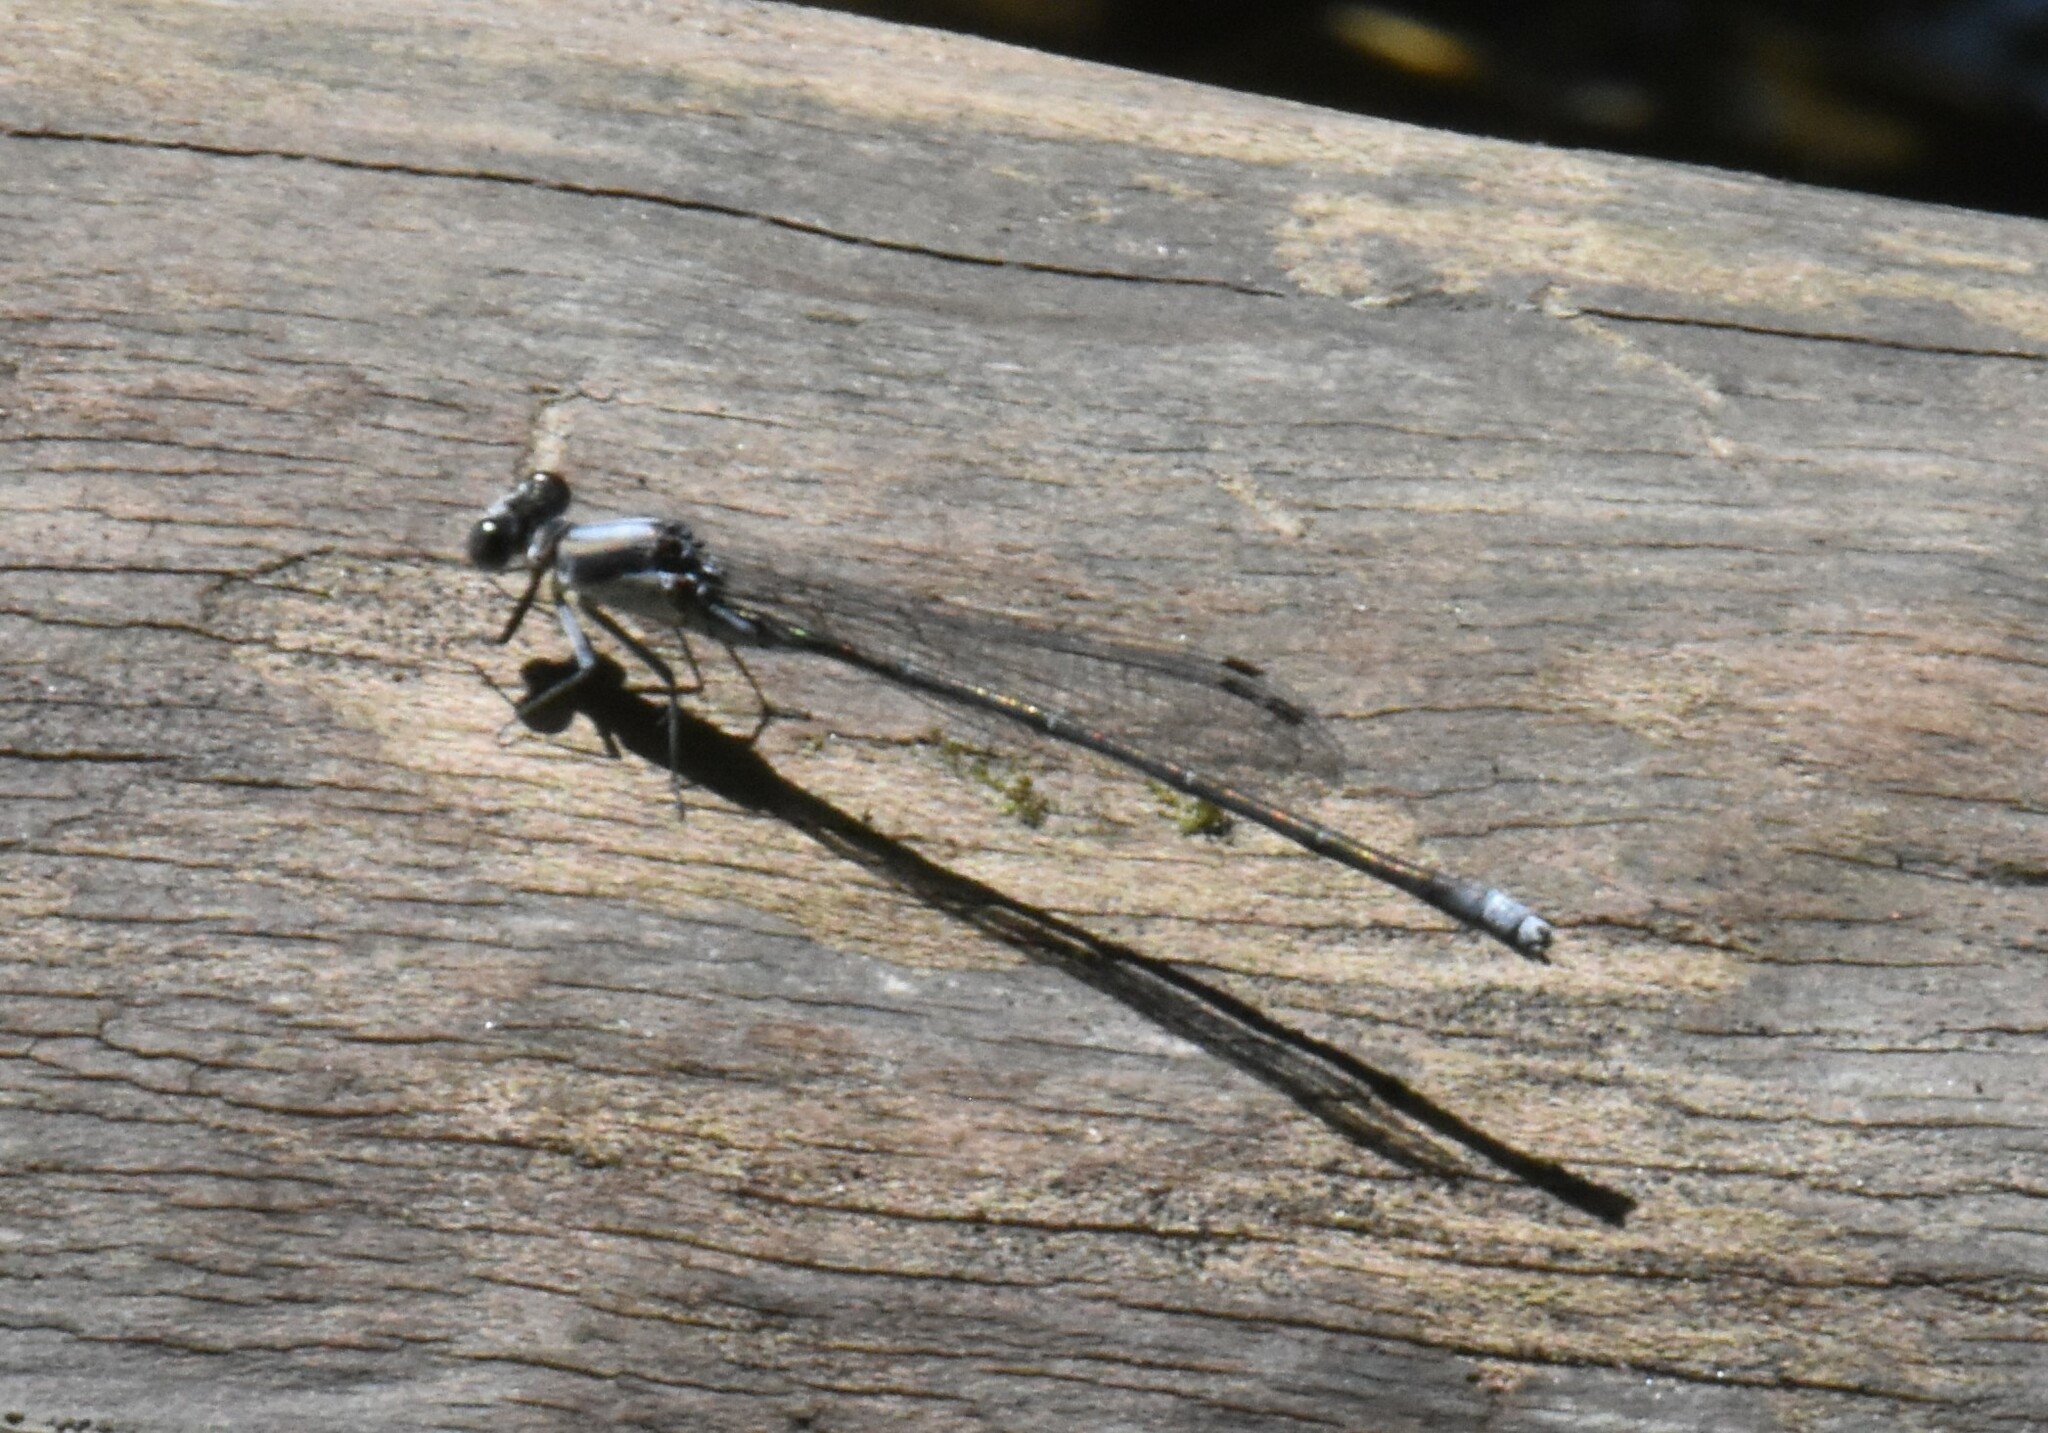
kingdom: Animalia
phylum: Arthropoda
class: Insecta
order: Odonata
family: Coenagrionidae
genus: Argia
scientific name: Argia moesta
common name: Powdered dancer
